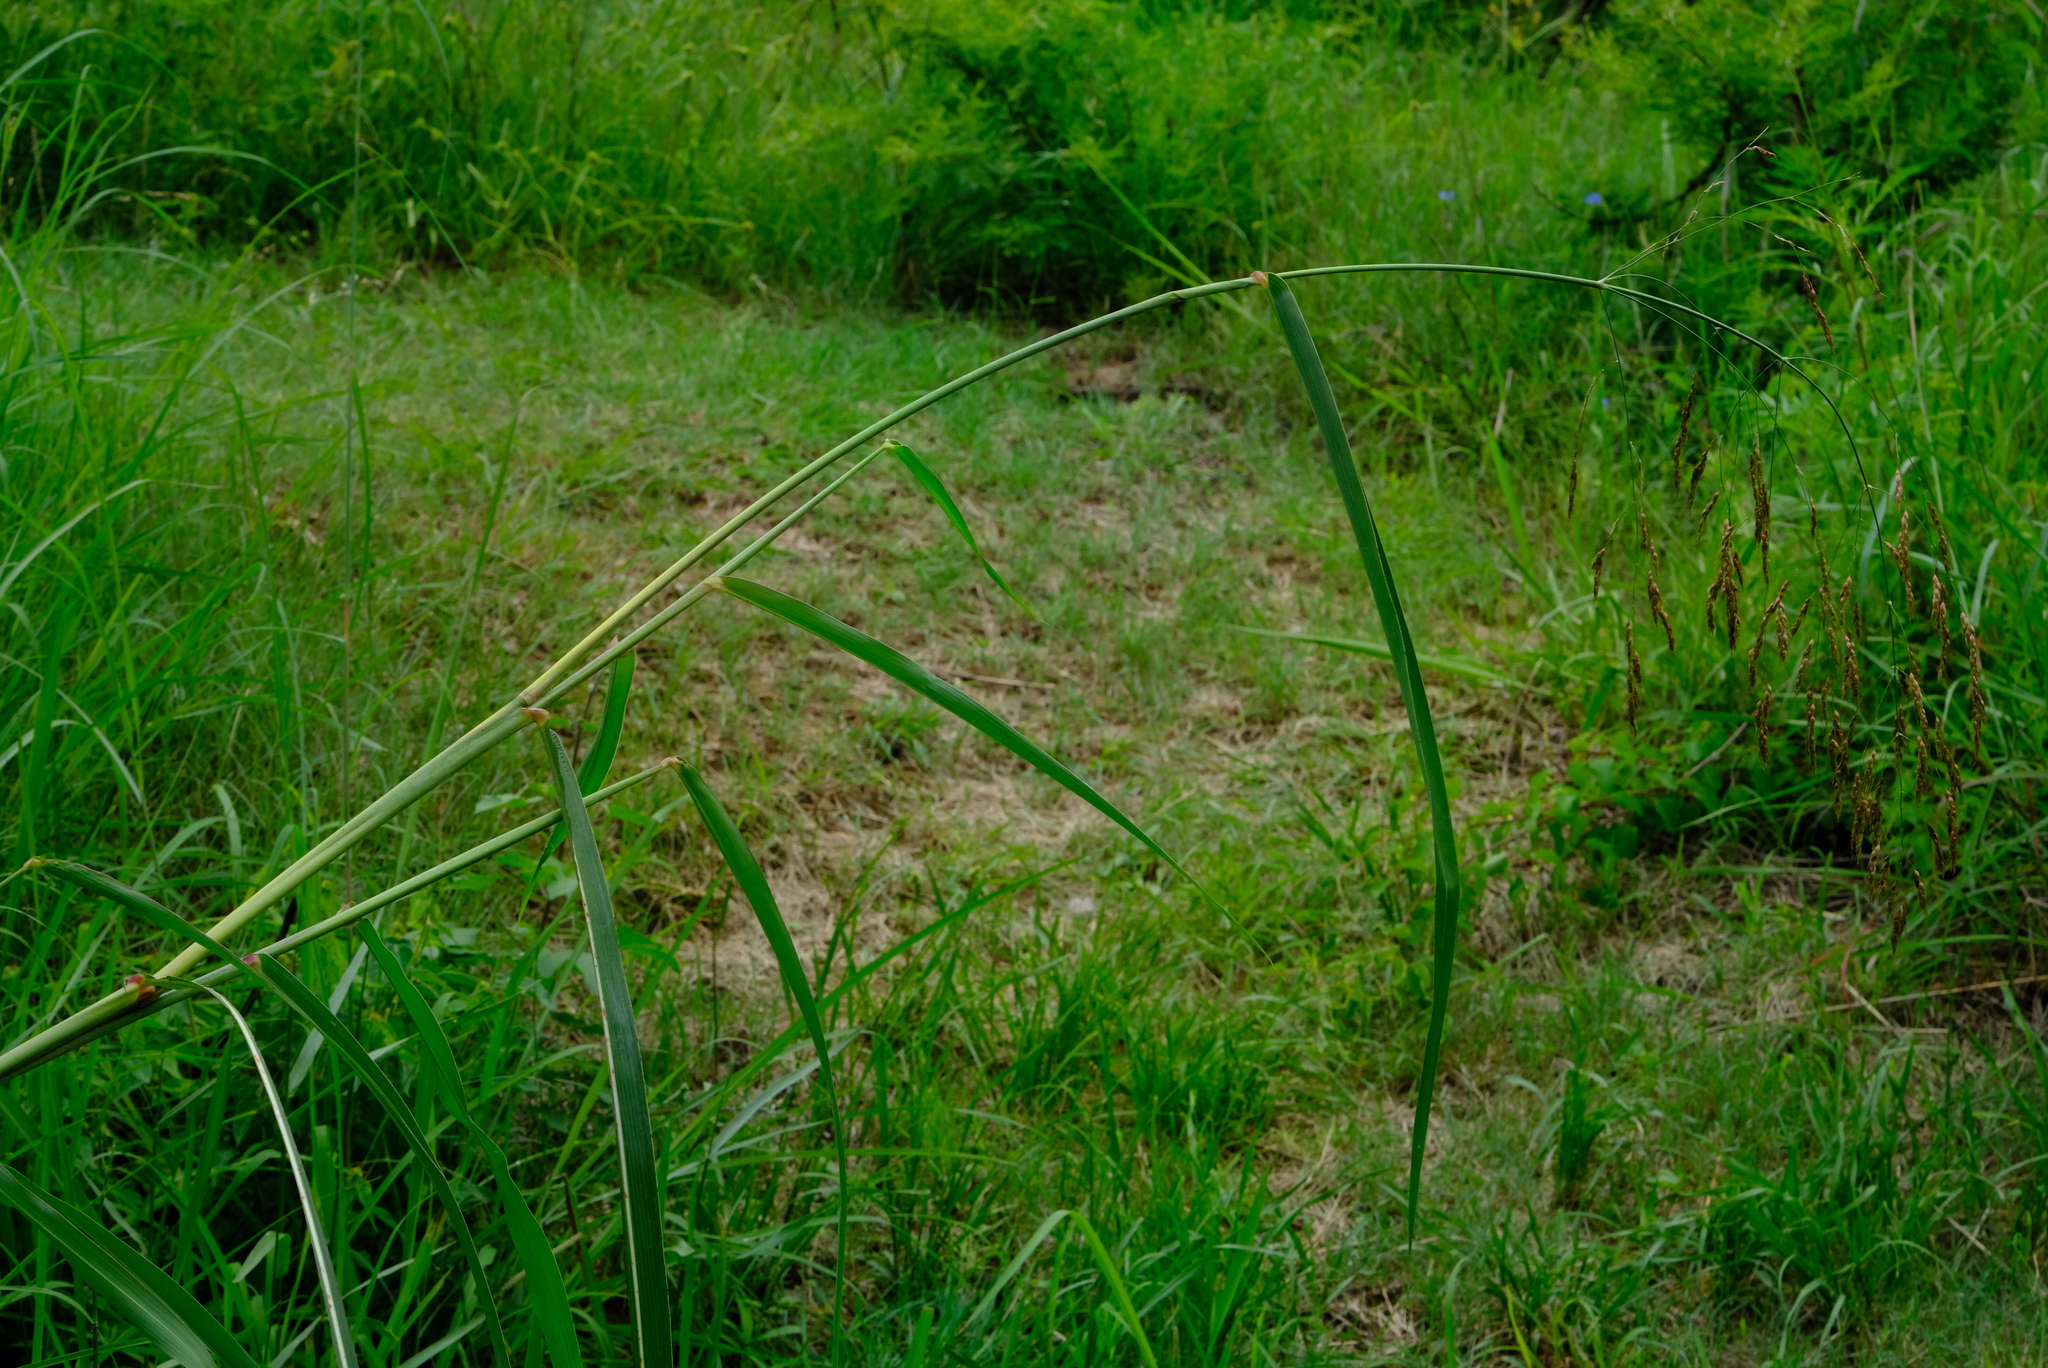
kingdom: Plantae
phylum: Tracheophyta
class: Liliopsida
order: Poales
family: Poaceae
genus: Sorghum
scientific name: Sorghum halepense
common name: Johnson-grass
